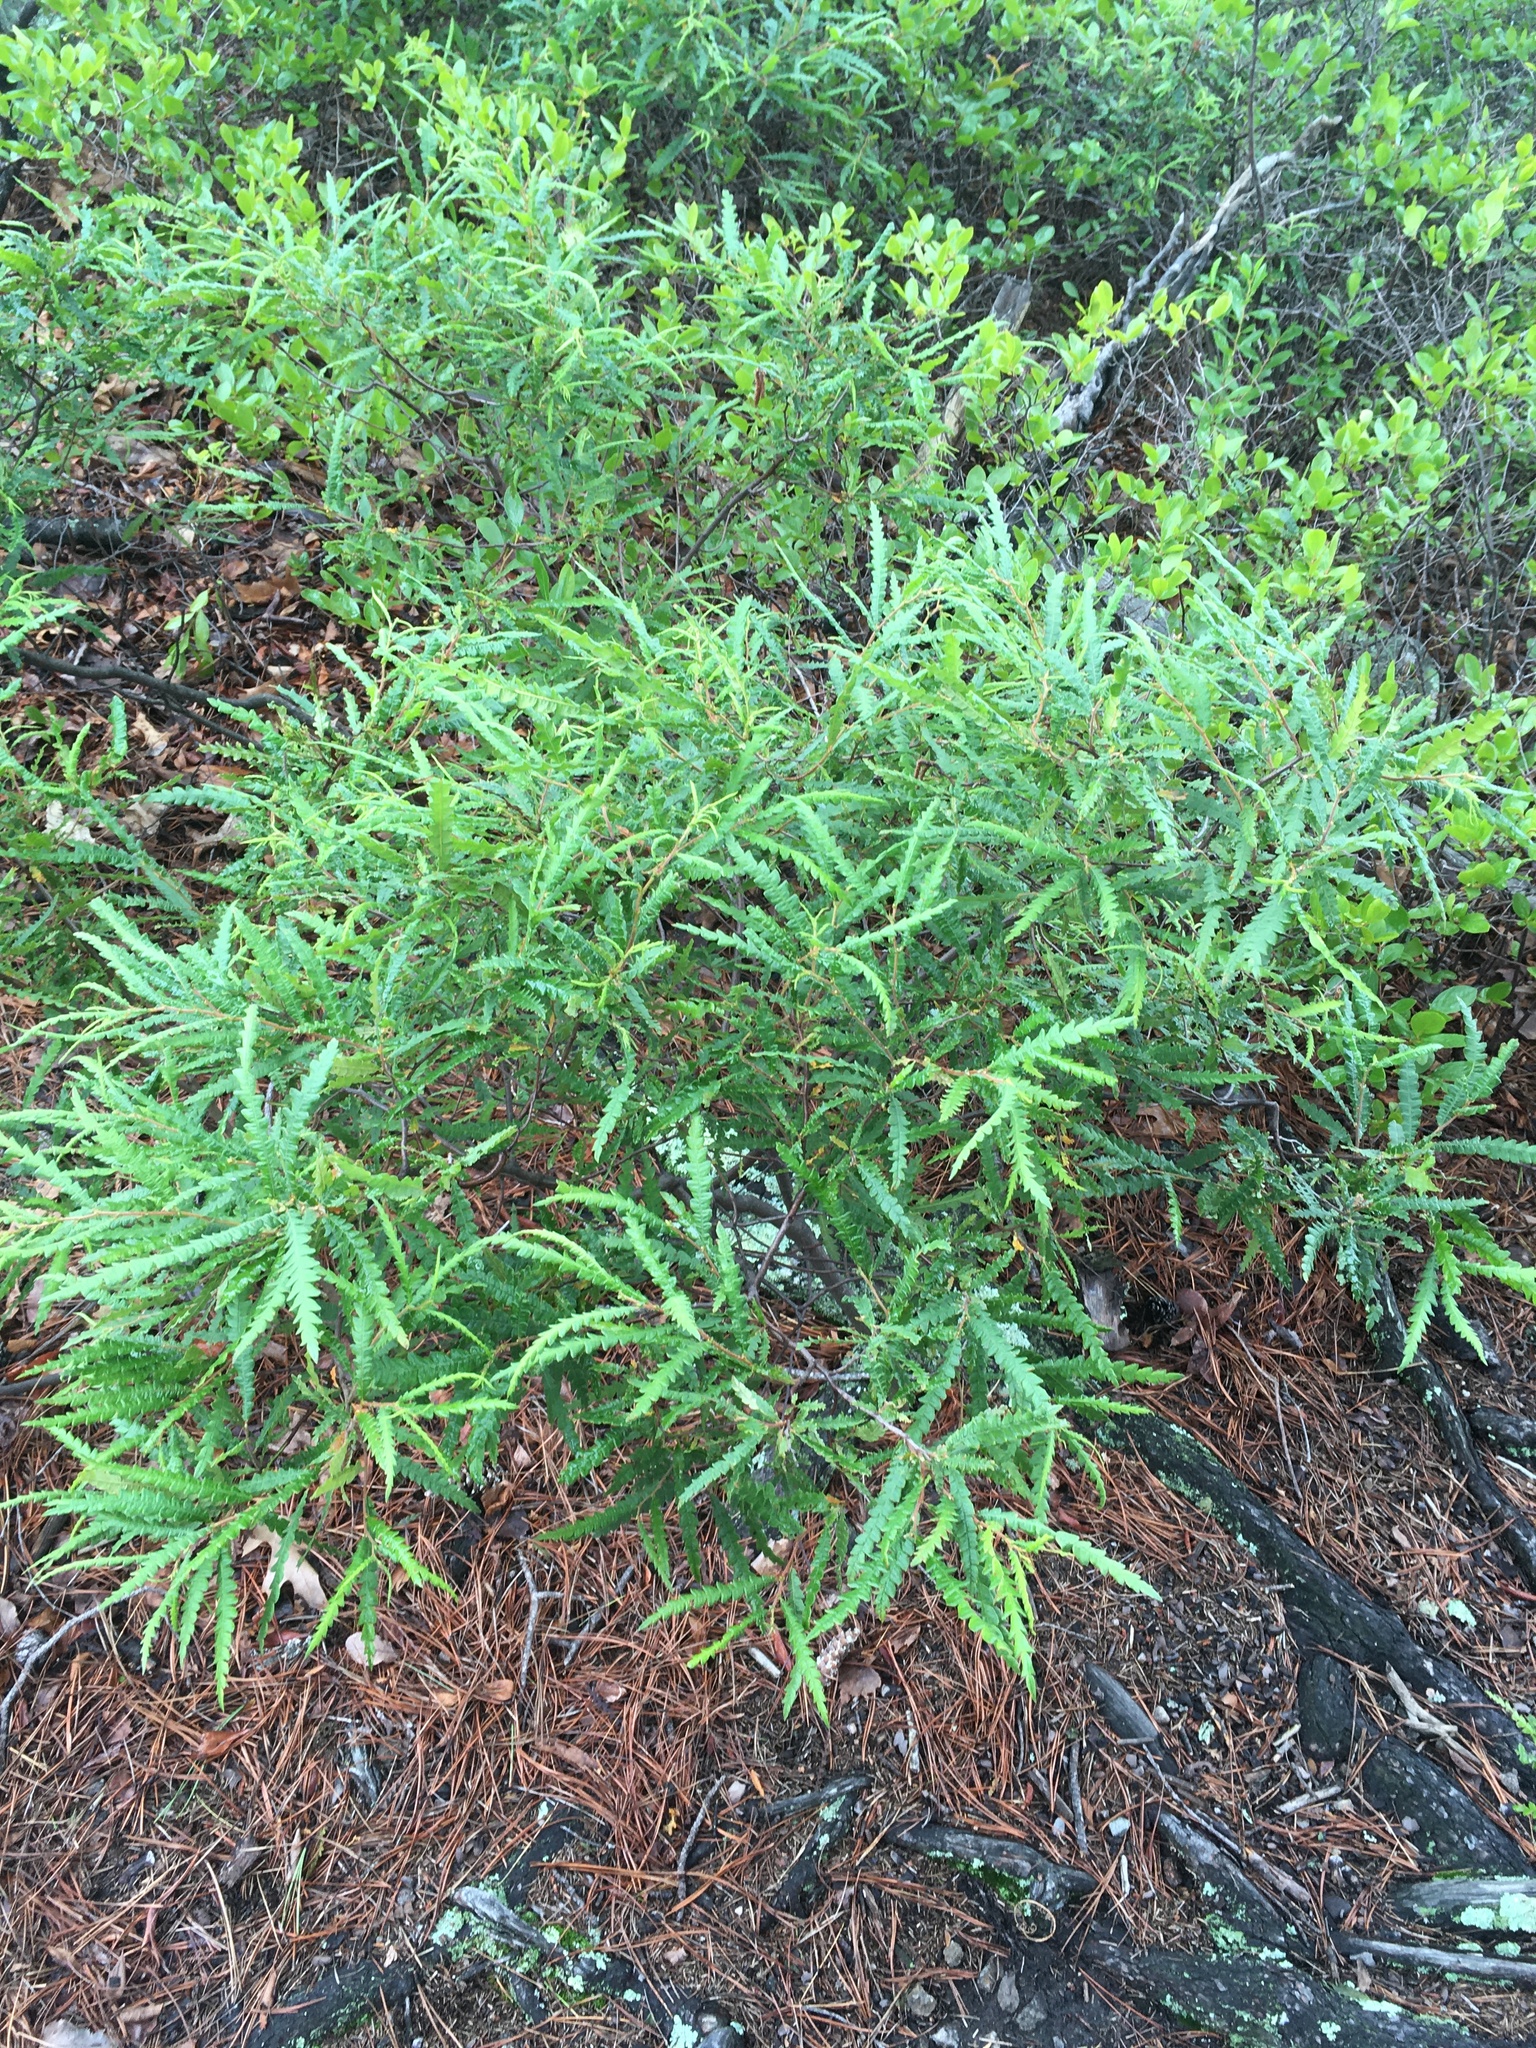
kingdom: Plantae
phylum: Tracheophyta
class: Magnoliopsida
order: Fagales
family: Myricaceae
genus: Comptonia
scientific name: Comptonia peregrina
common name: Sweet-fern
